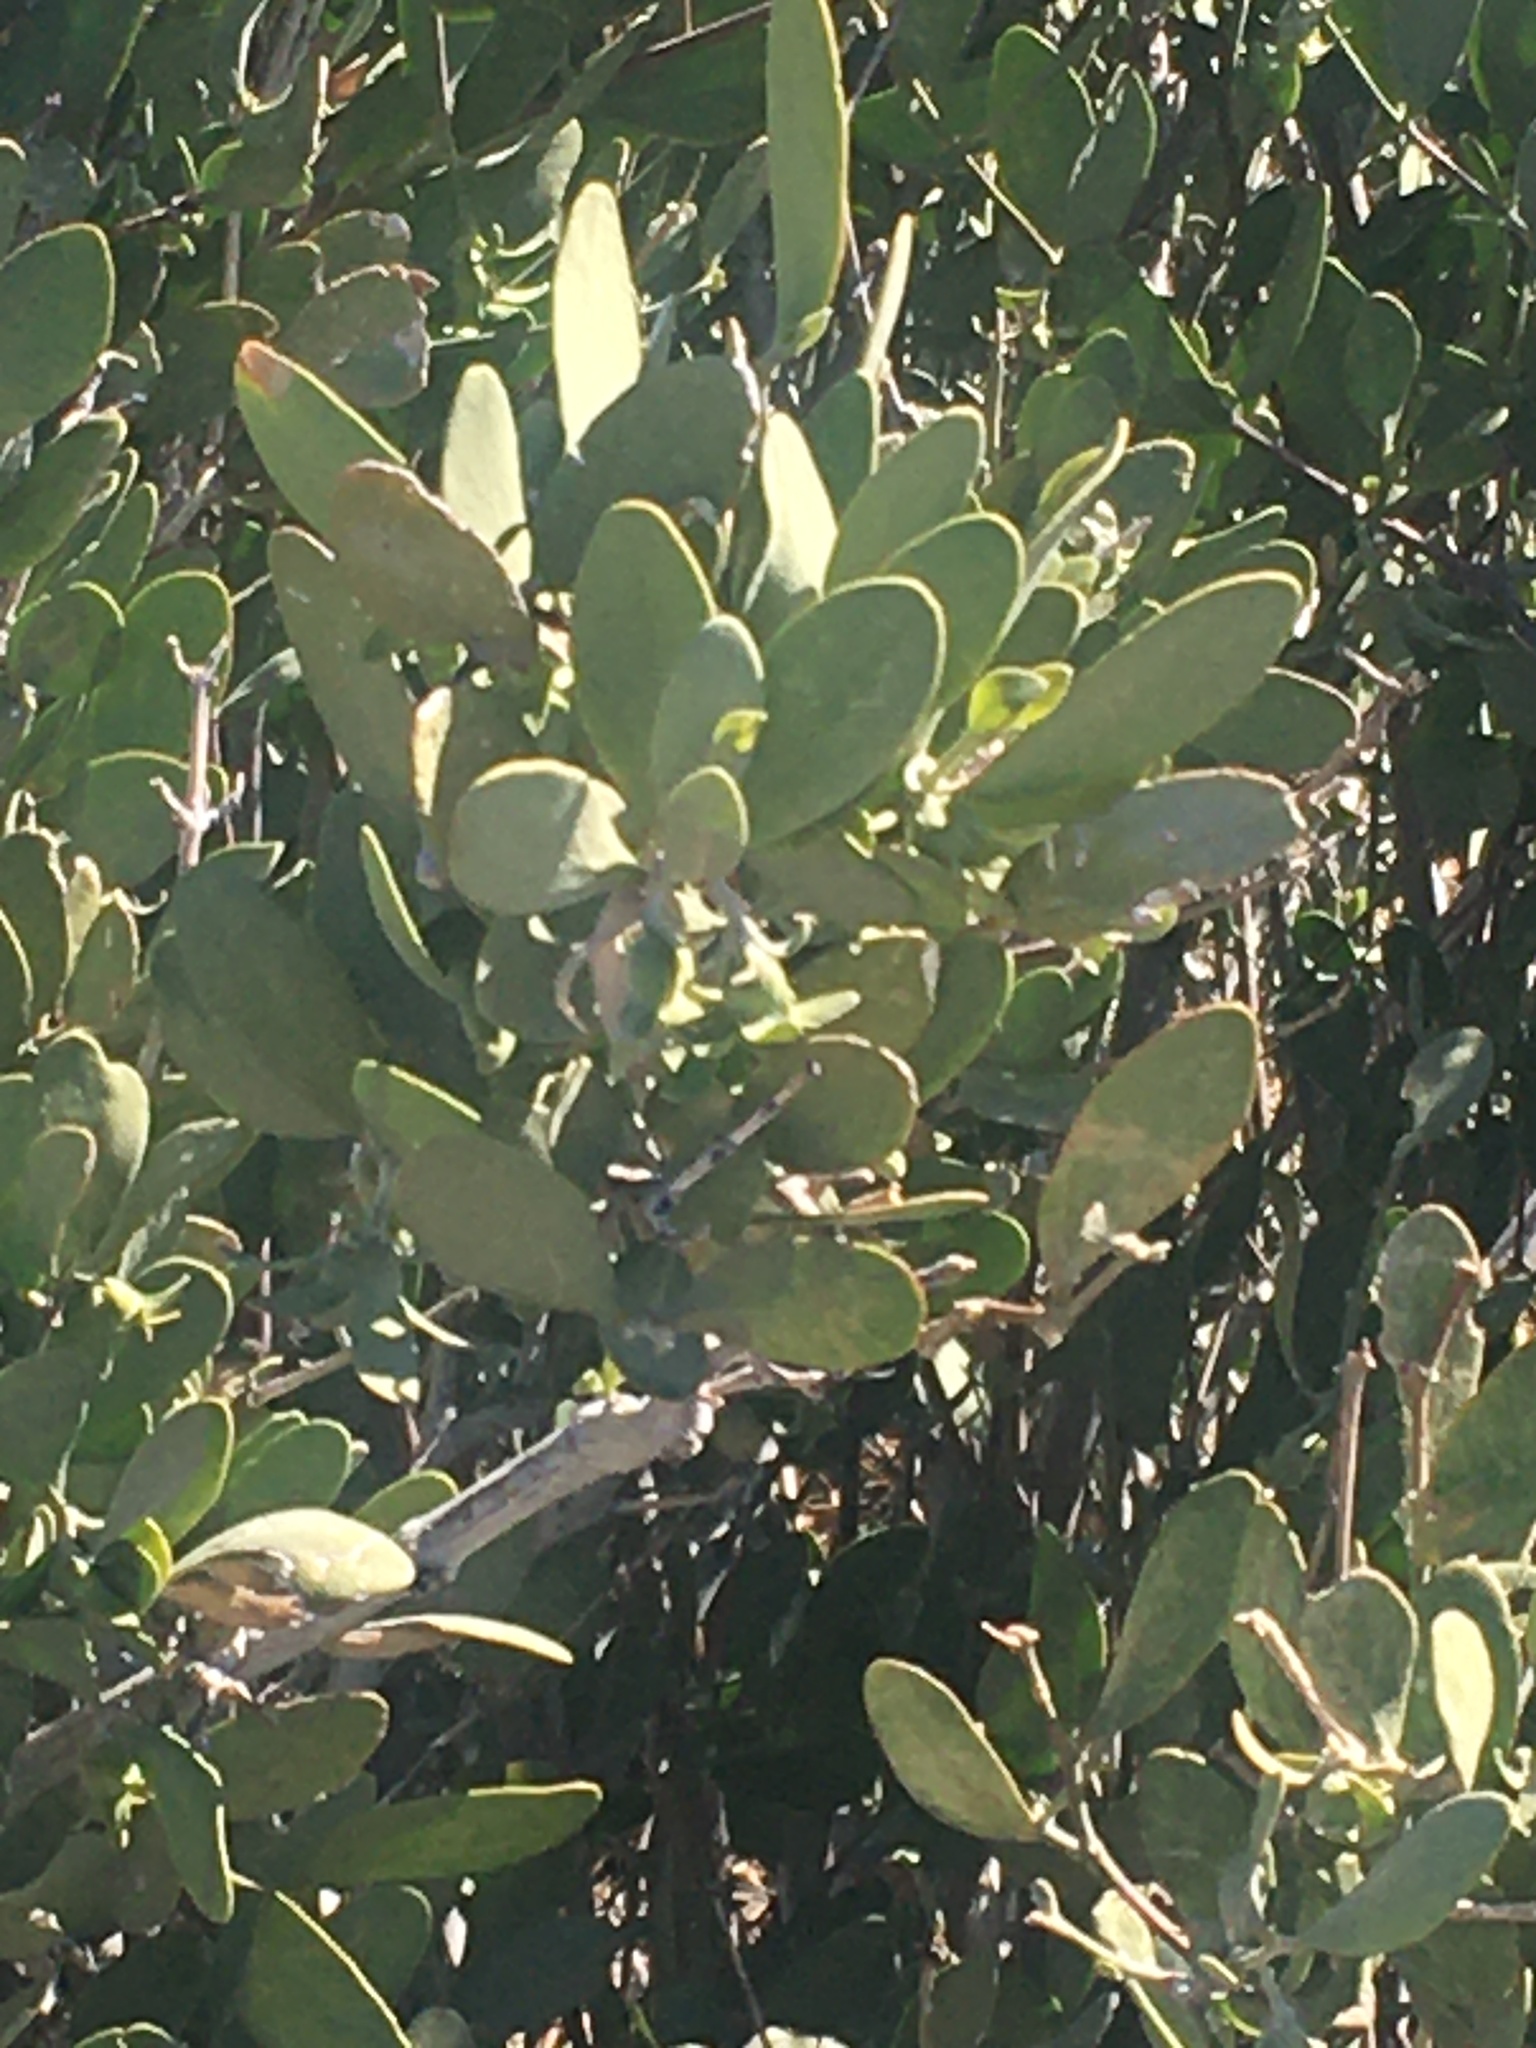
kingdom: Plantae
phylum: Tracheophyta
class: Magnoliopsida
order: Caryophyllales
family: Simmondsiaceae
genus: Simmondsia
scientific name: Simmondsia chinensis
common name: Jojoba
